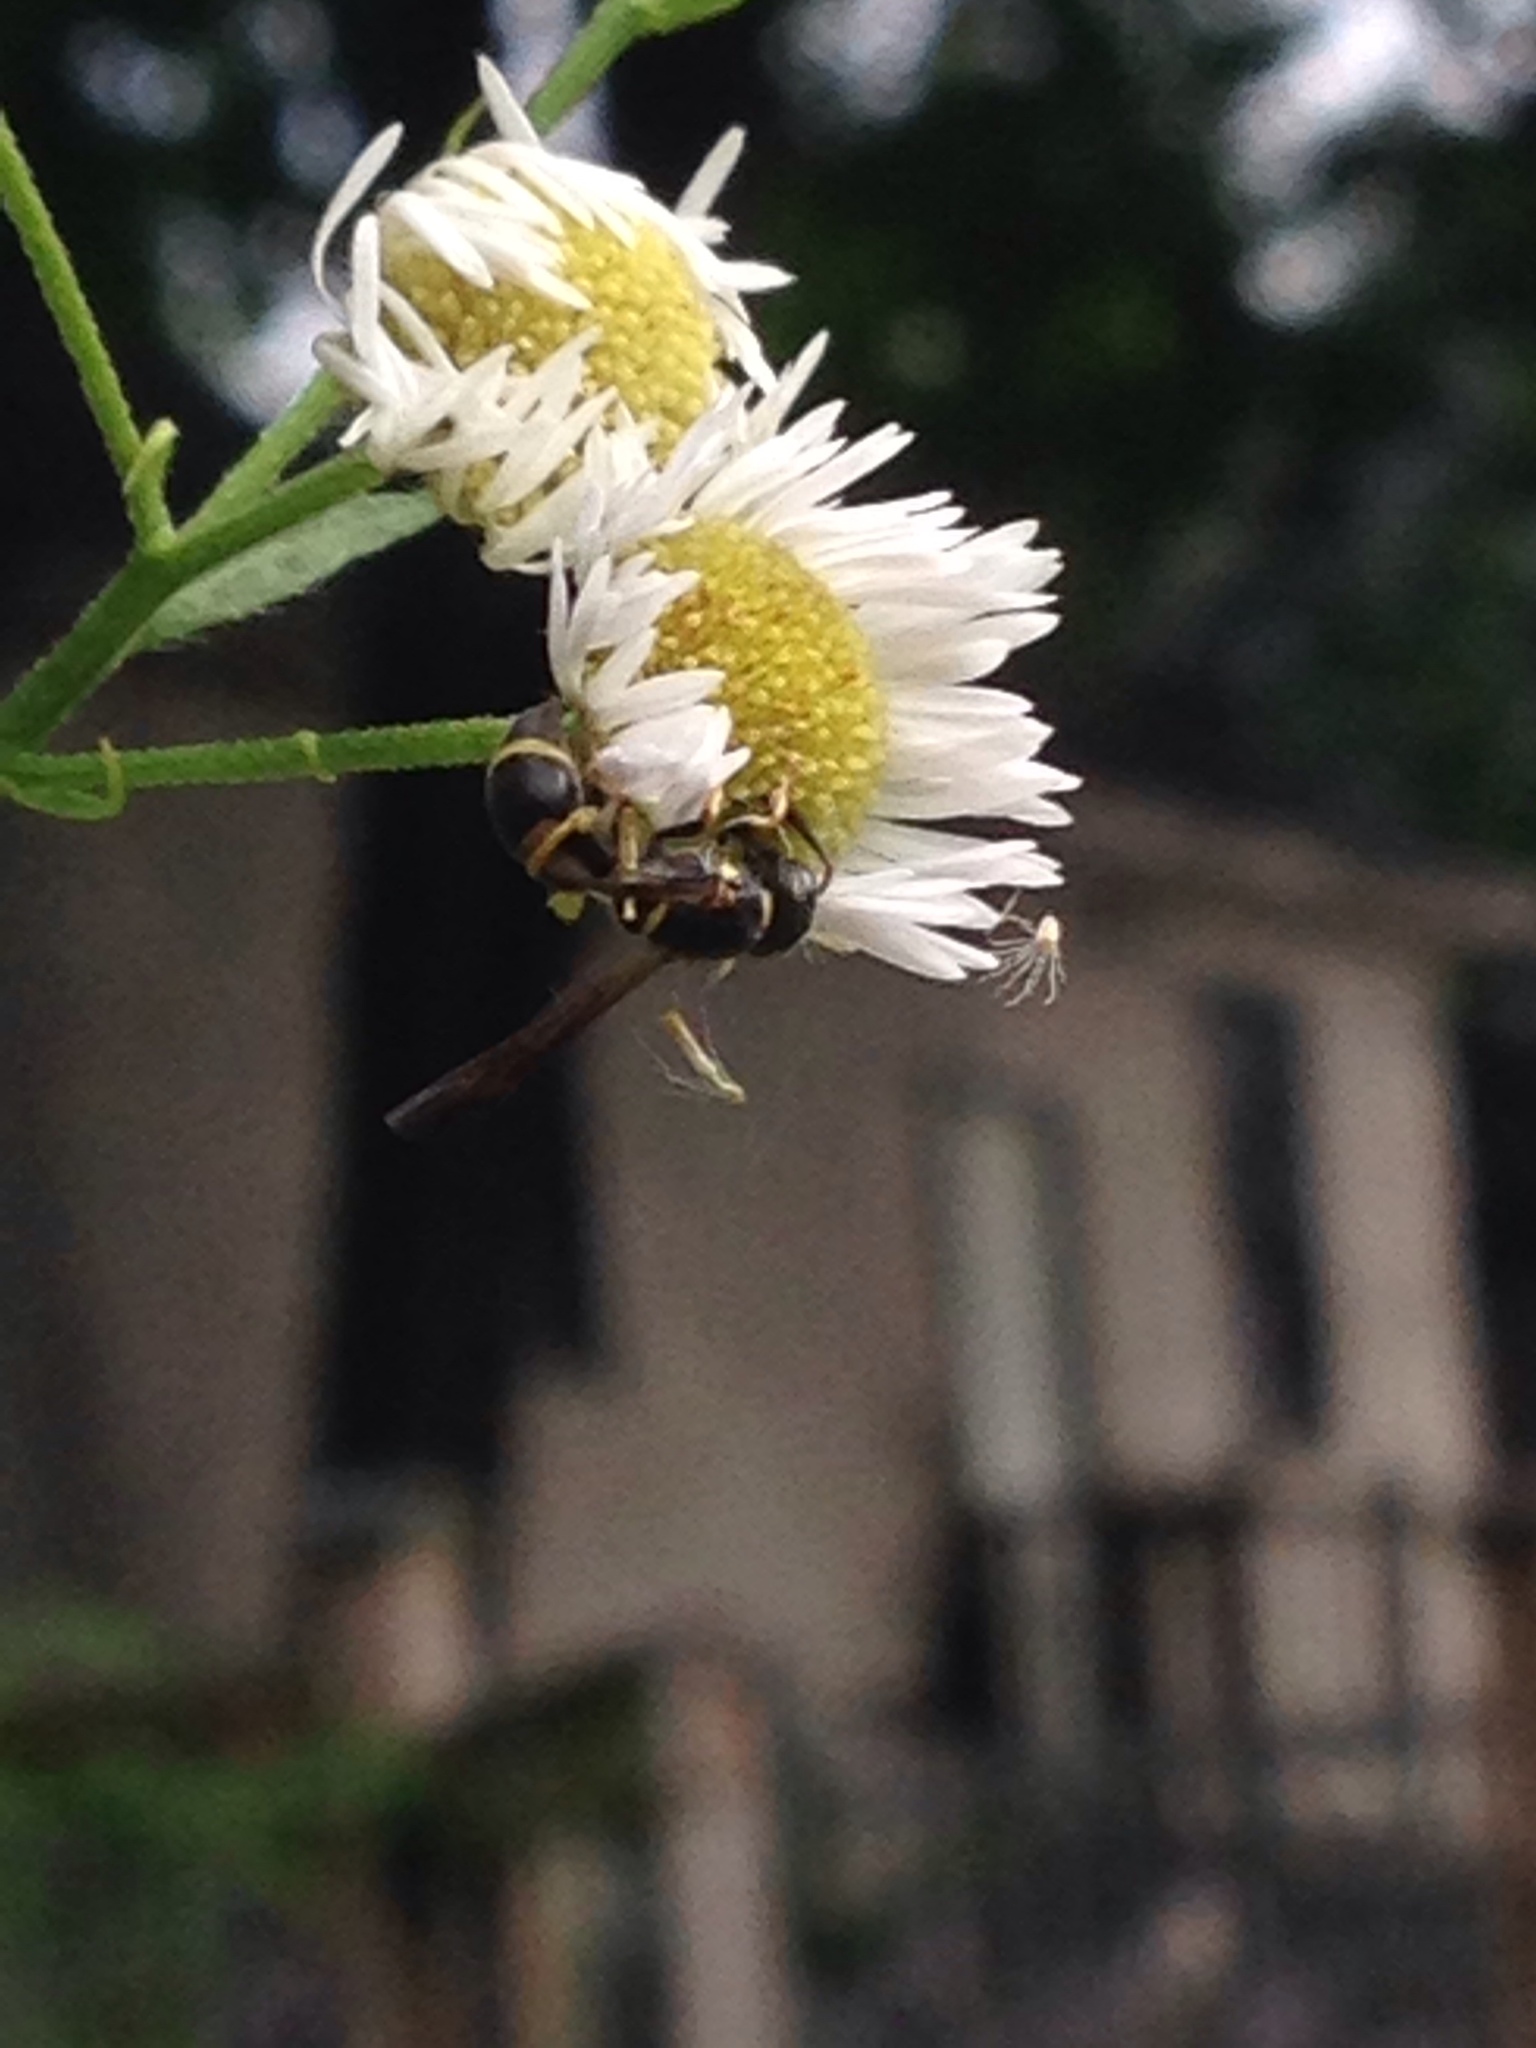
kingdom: Animalia
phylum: Arthropoda
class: Insecta
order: Hymenoptera
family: Eumenidae
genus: Parancistrocerus
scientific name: Parancistrocerus perennis
